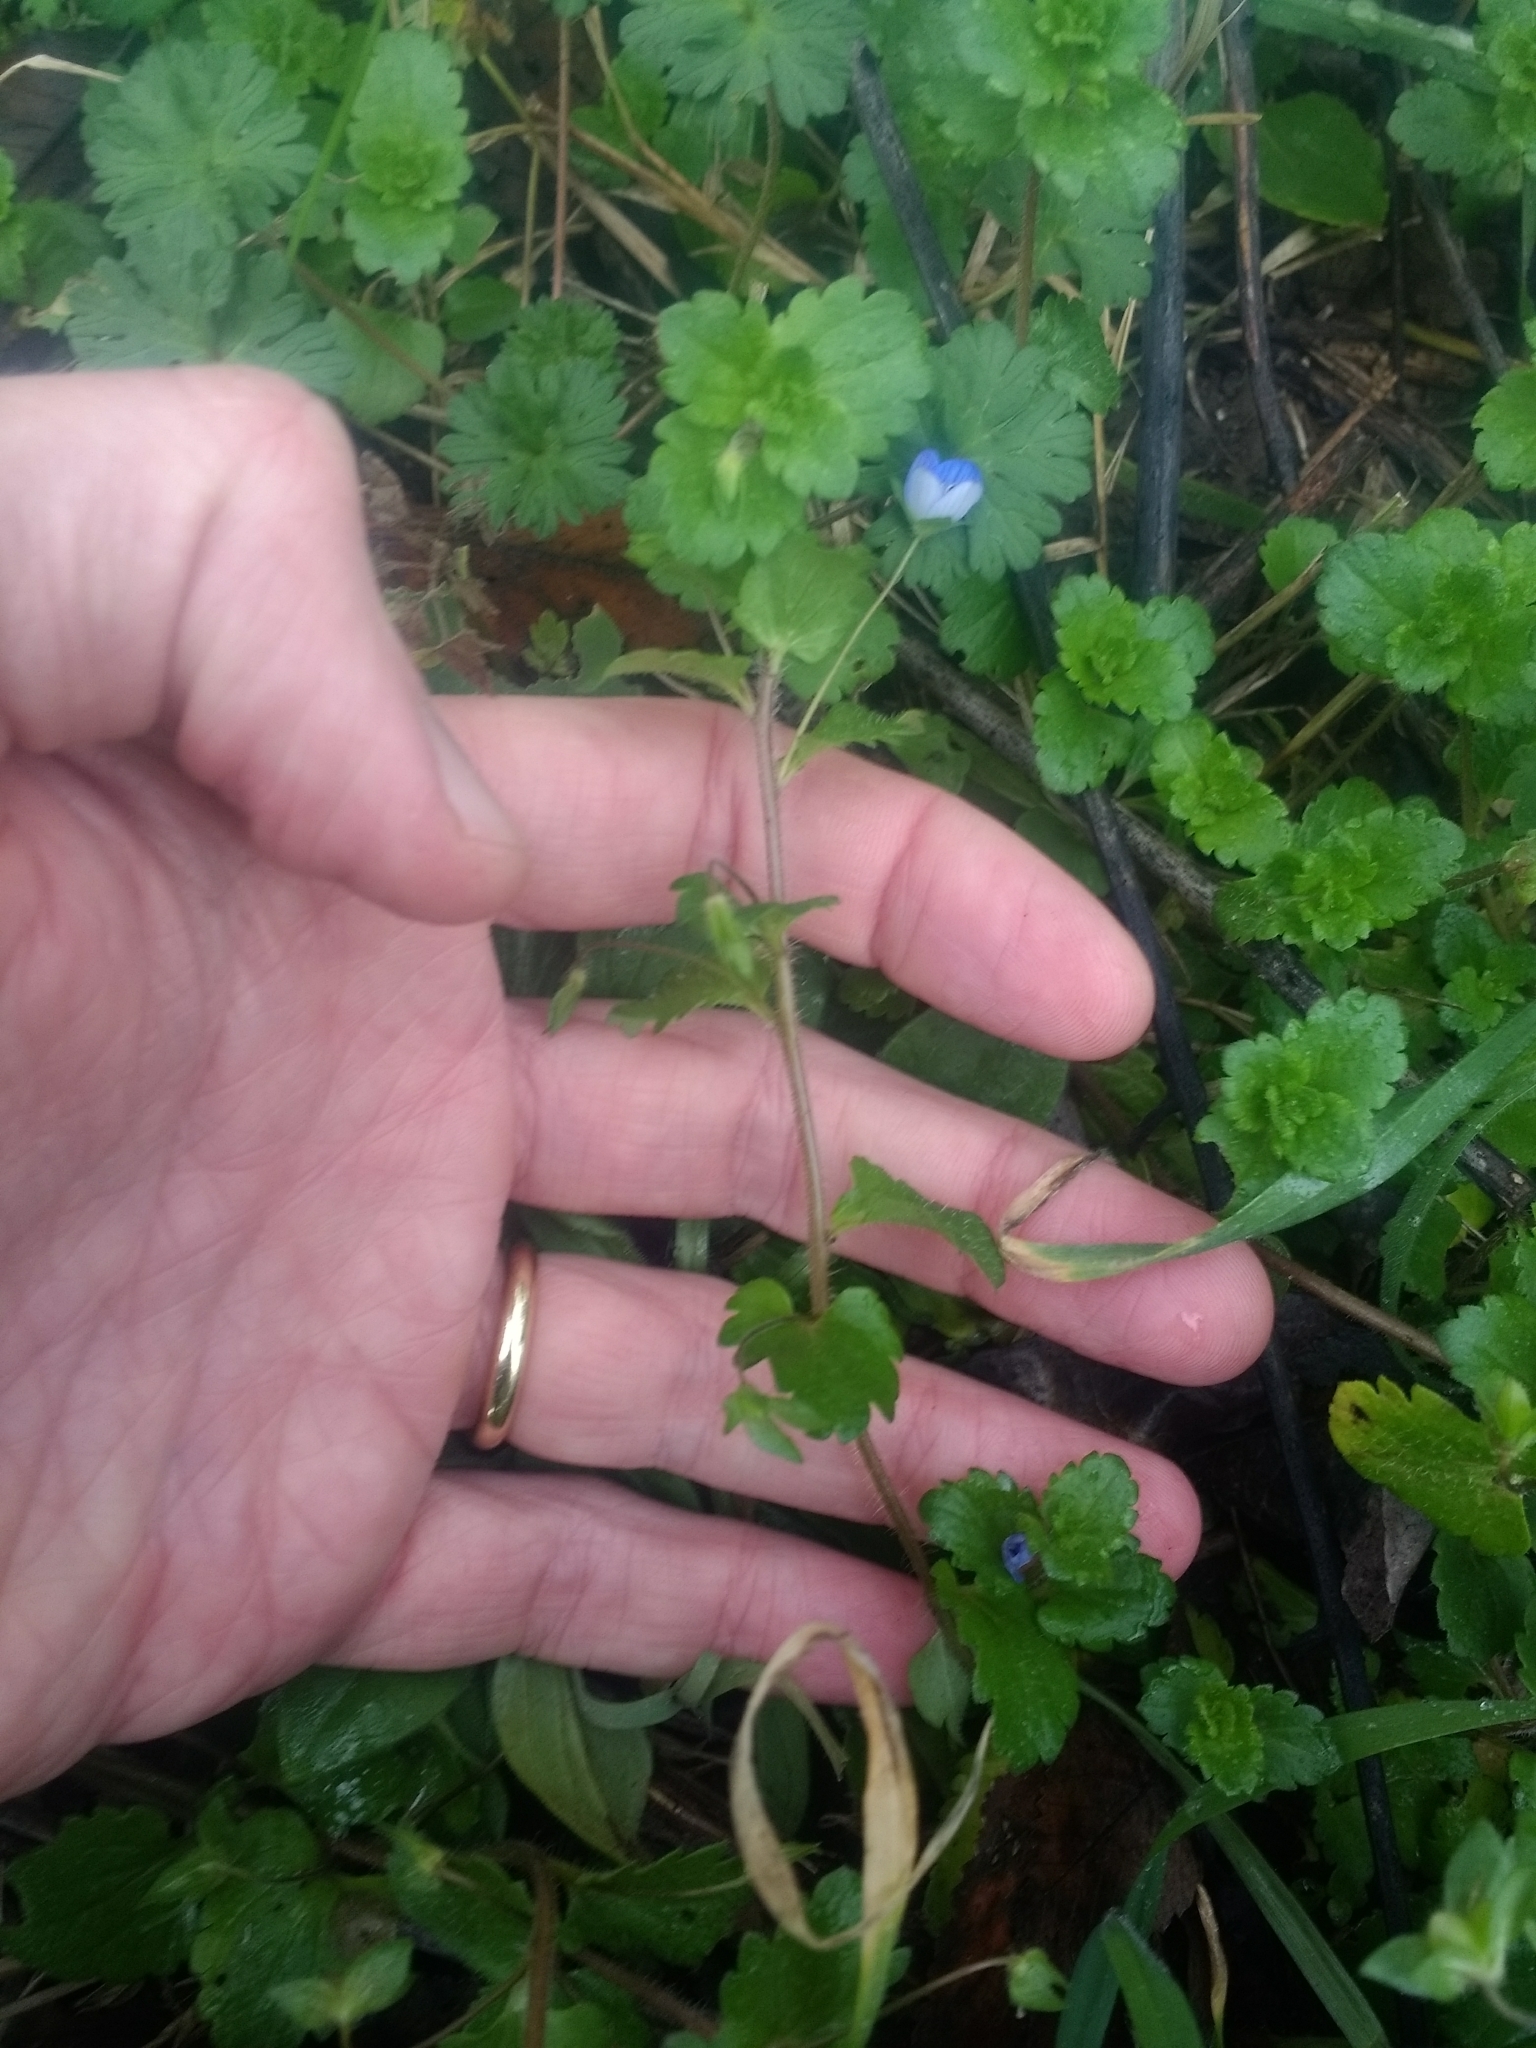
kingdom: Plantae
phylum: Tracheophyta
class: Magnoliopsida
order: Lamiales
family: Plantaginaceae
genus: Veronica
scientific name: Veronica persica
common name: Common field-speedwell
